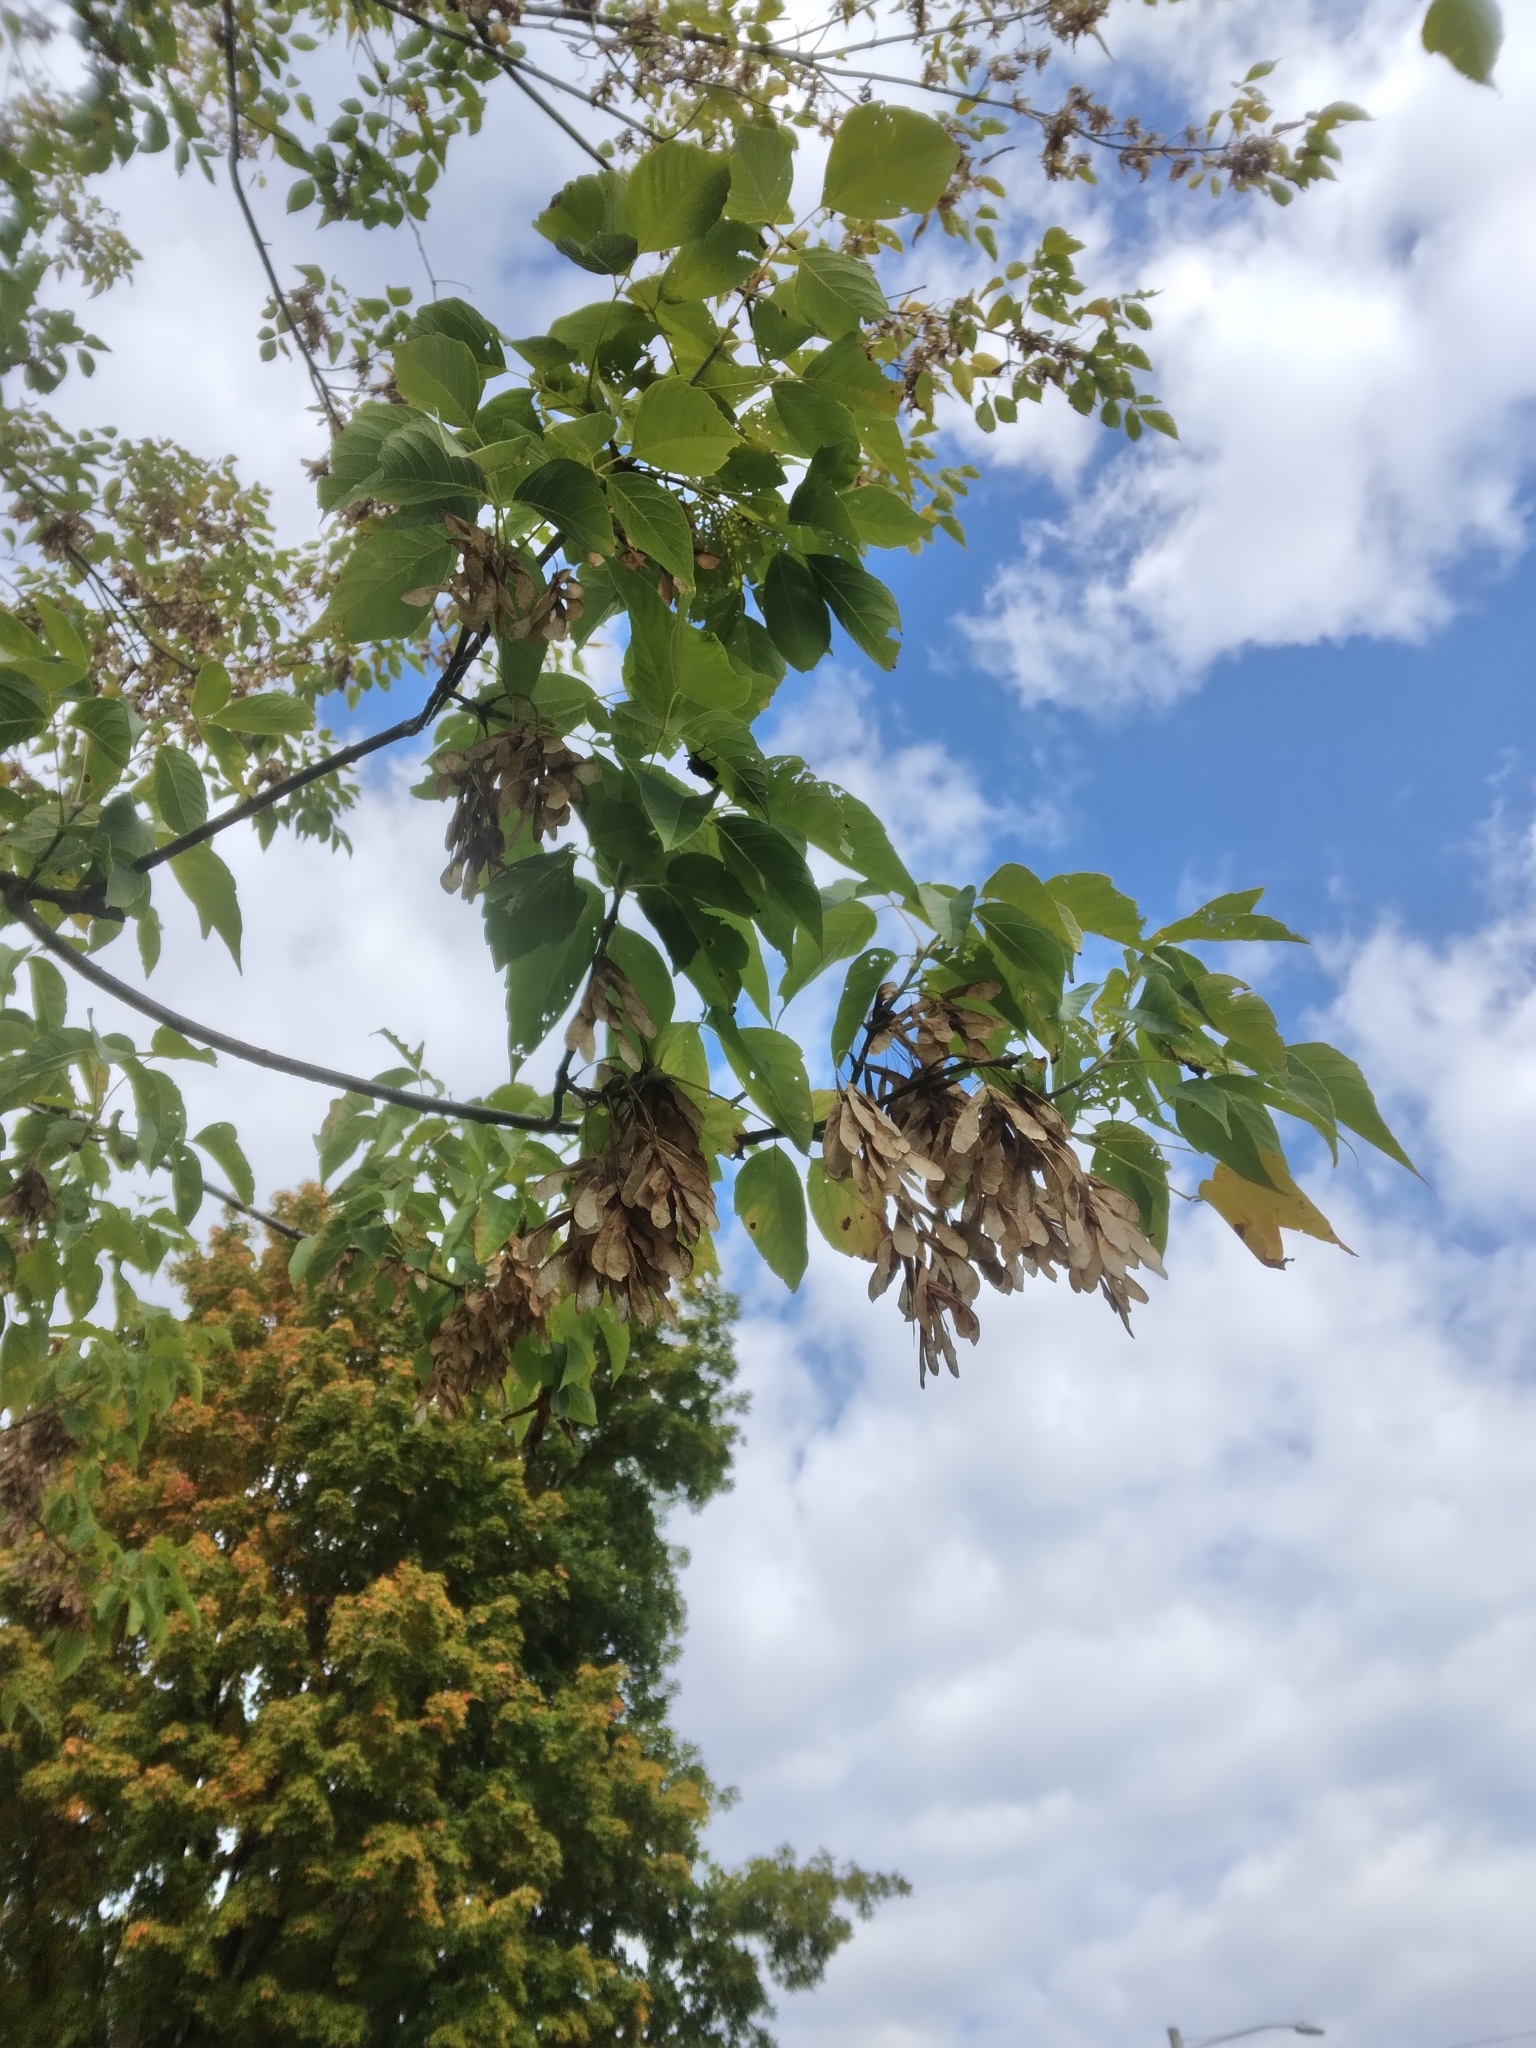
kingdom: Plantae
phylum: Tracheophyta
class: Magnoliopsida
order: Sapindales
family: Sapindaceae
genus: Acer
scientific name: Acer negundo
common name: Ashleaf maple
